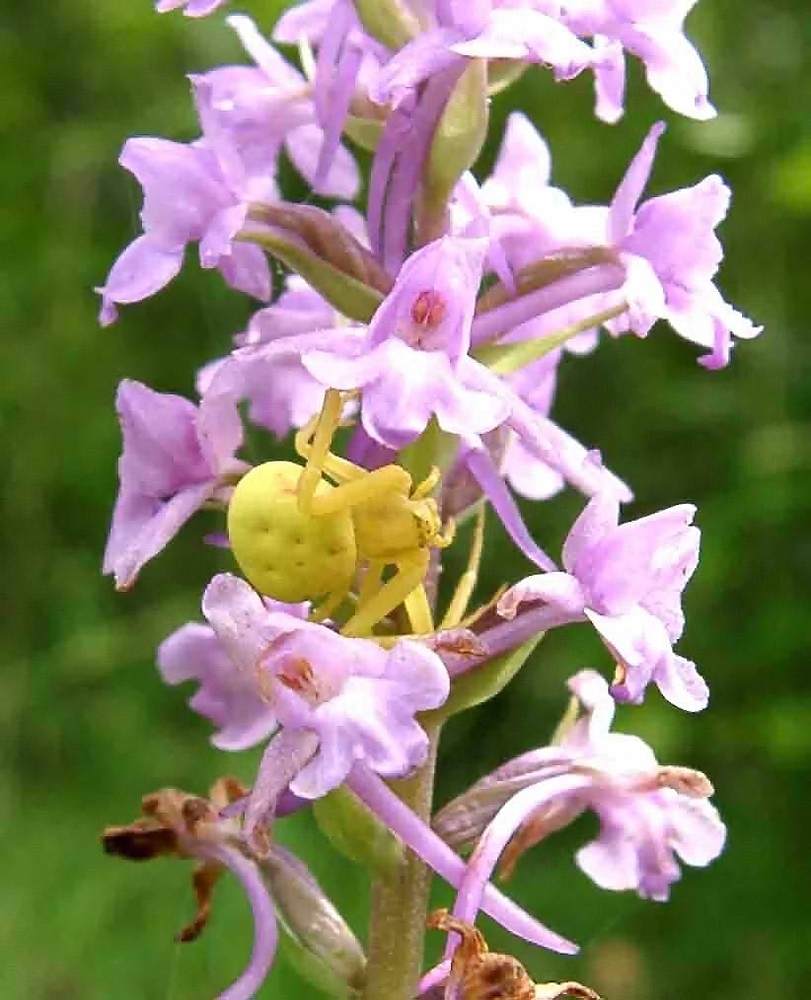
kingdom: Animalia
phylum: Arthropoda
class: Arachnida
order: Araneae
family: Thomisidae
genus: Misumena
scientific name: Misumena vatia
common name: Goldenrod crab spider
